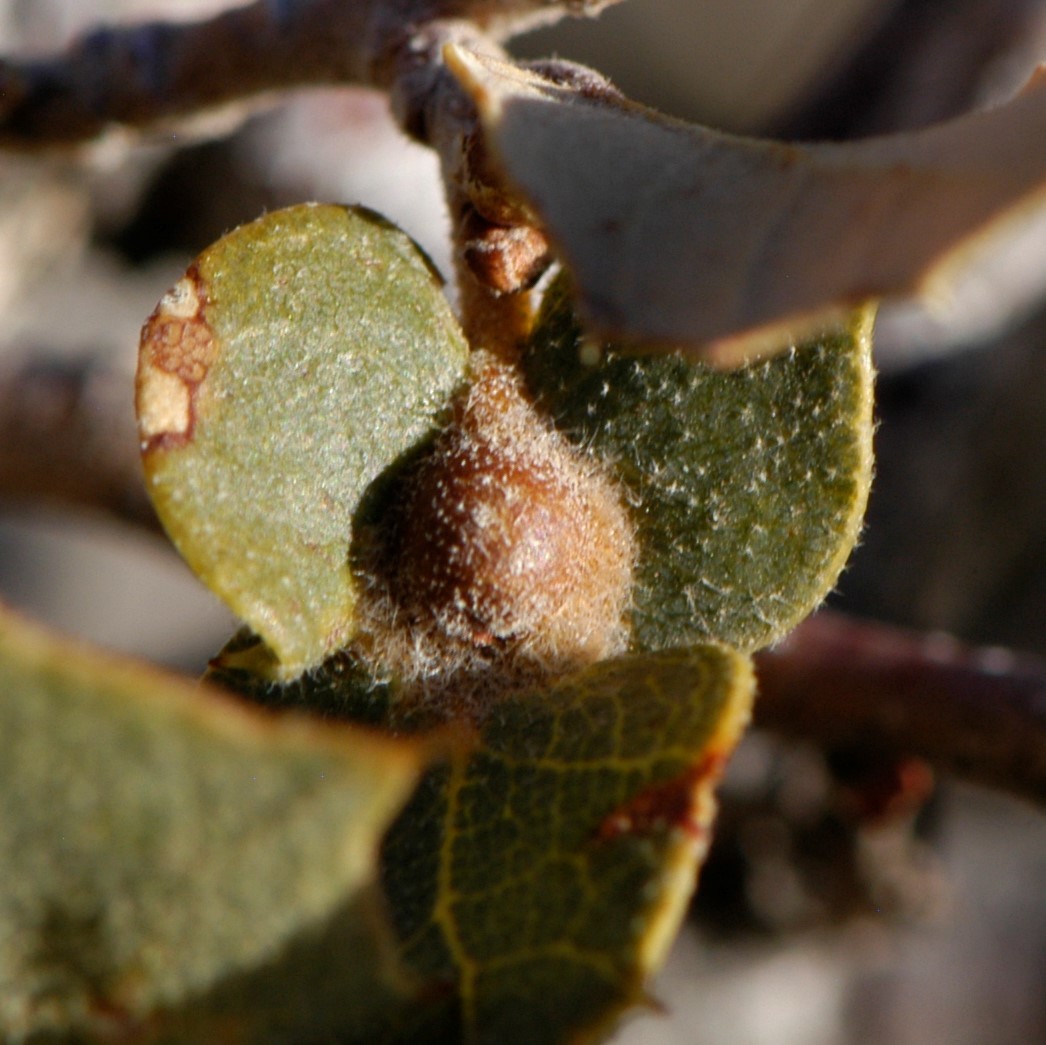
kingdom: Animalia
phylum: Arthropoda
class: Insecta
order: Hymenoptera
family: Cynipidae
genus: Andricus
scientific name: Andricus
